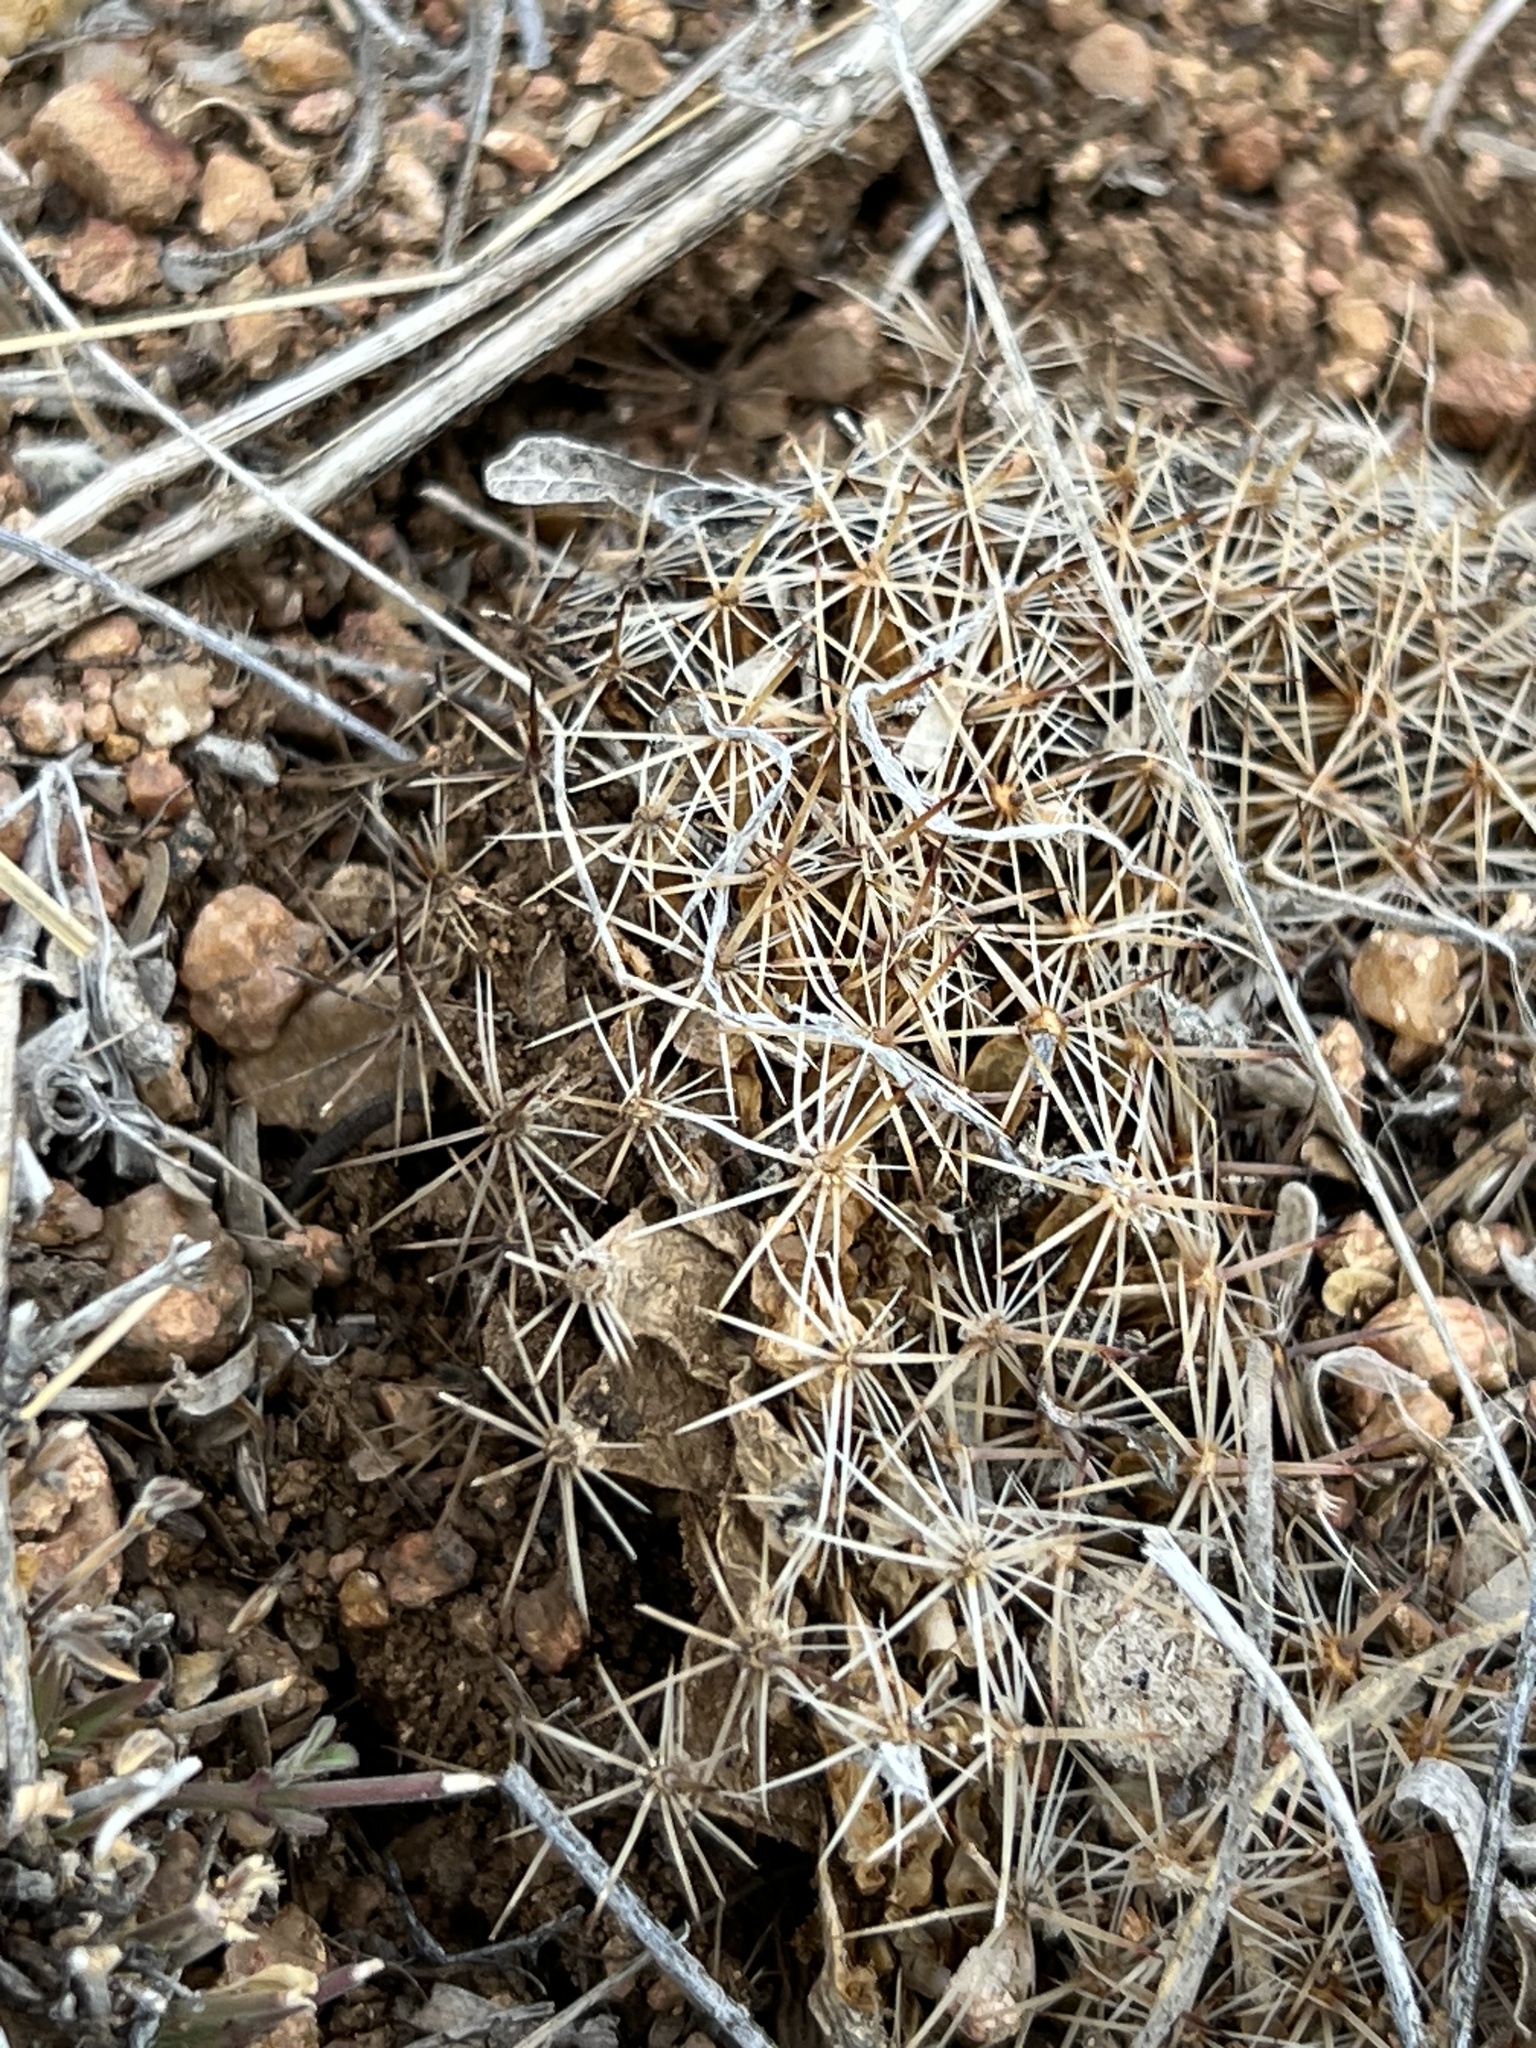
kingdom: Plantae
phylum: Tracheophyta
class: Magnoliopsida
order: Caryophyllales
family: Cactaceae
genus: Mammillaria
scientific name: Mammillaria heyderi
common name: Little nipple cactus
